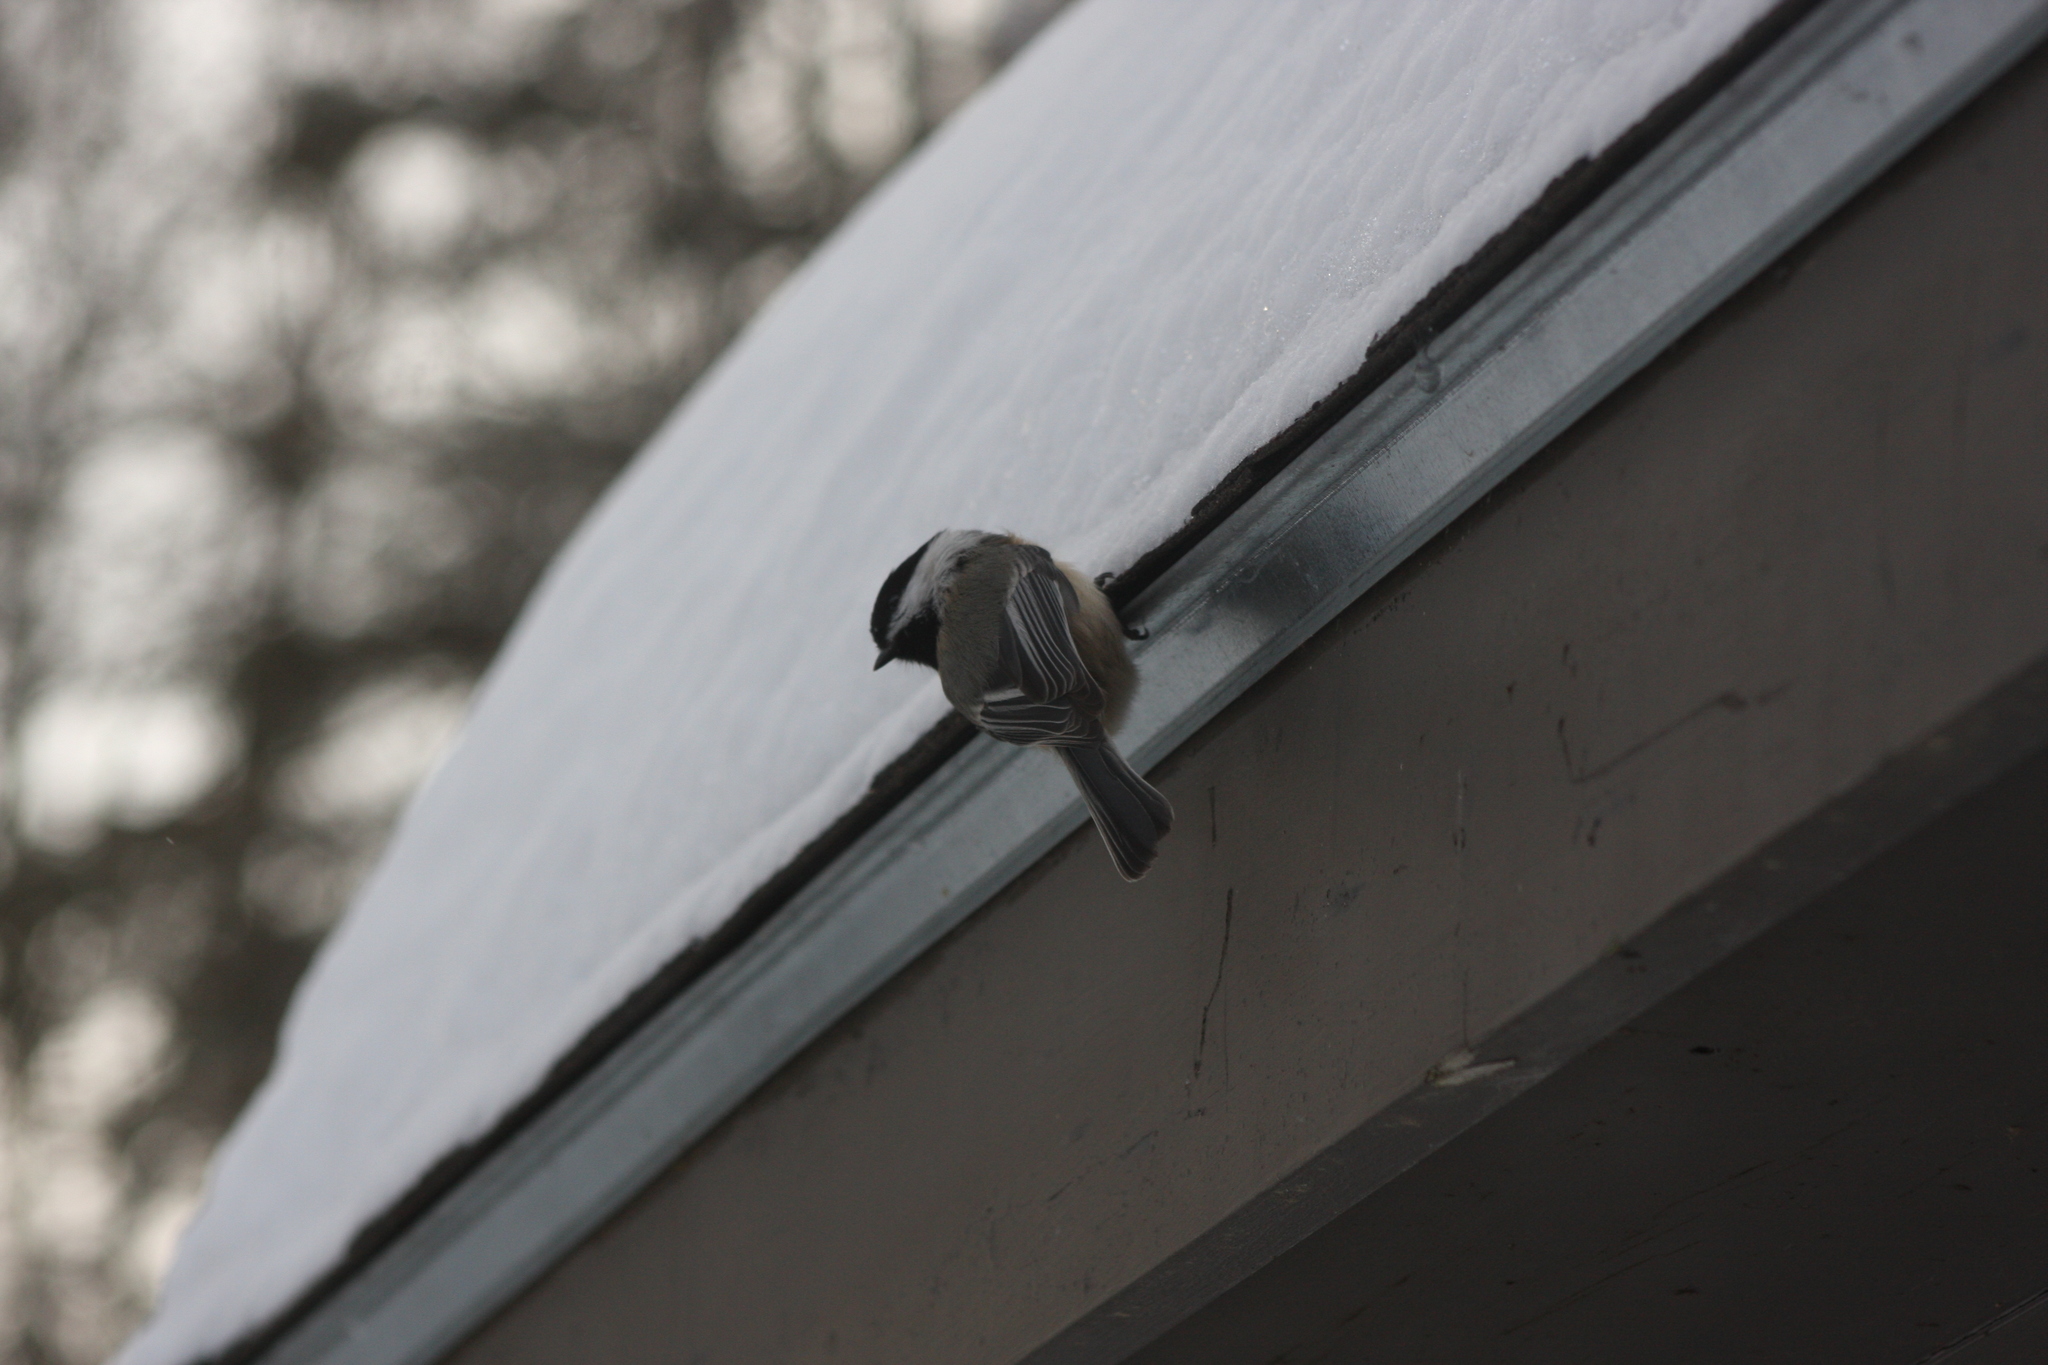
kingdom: Animalia
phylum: Chordata
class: Aves
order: Passeriformes
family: Paridae
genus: Poecile
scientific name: Poecile atricapillus
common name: Black-capped chickadee
